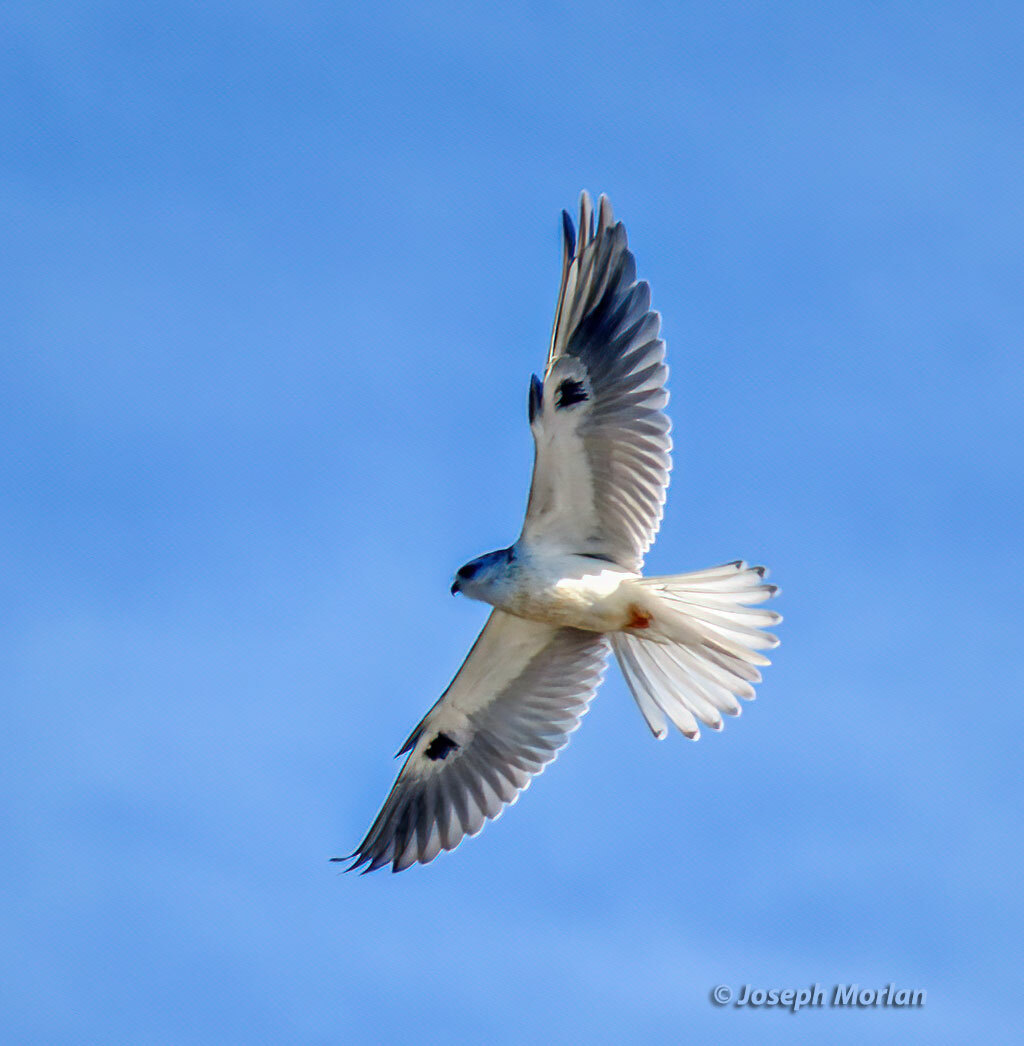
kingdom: Animalia
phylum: Chordata
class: Aves
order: Accipitriformes
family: Accipitridae
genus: Elanus
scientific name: Elanus leucurus
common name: White-tailed kite
